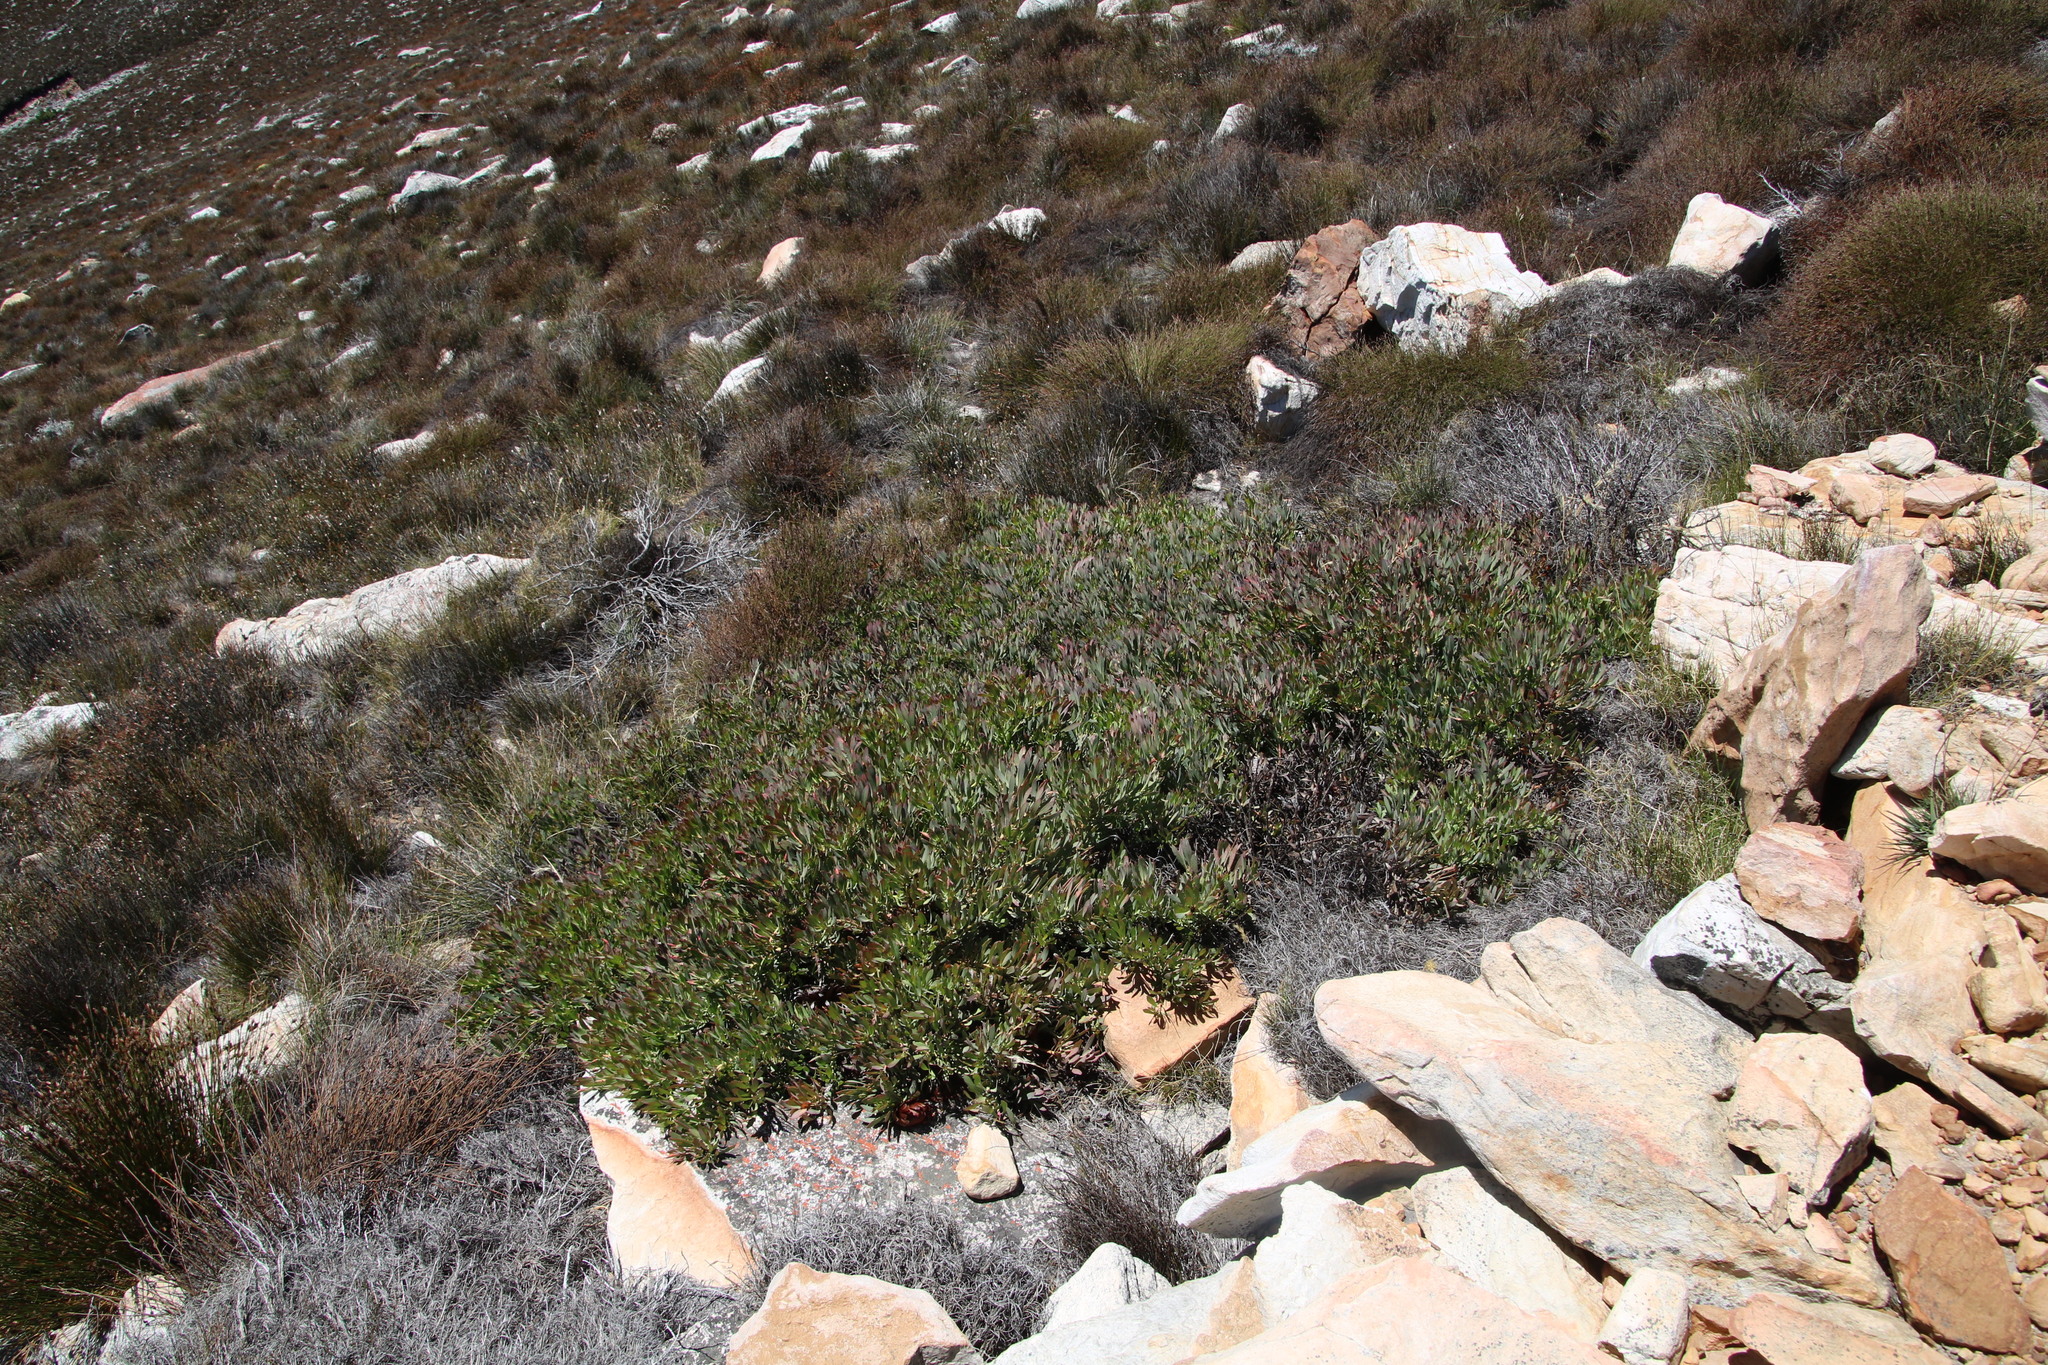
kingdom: Plantae
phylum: Tracheophyta
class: Magnoliopsida
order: Proteales
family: Proteaceae
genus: Protea
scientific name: Protea effusa
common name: Scarlet sugarbush
